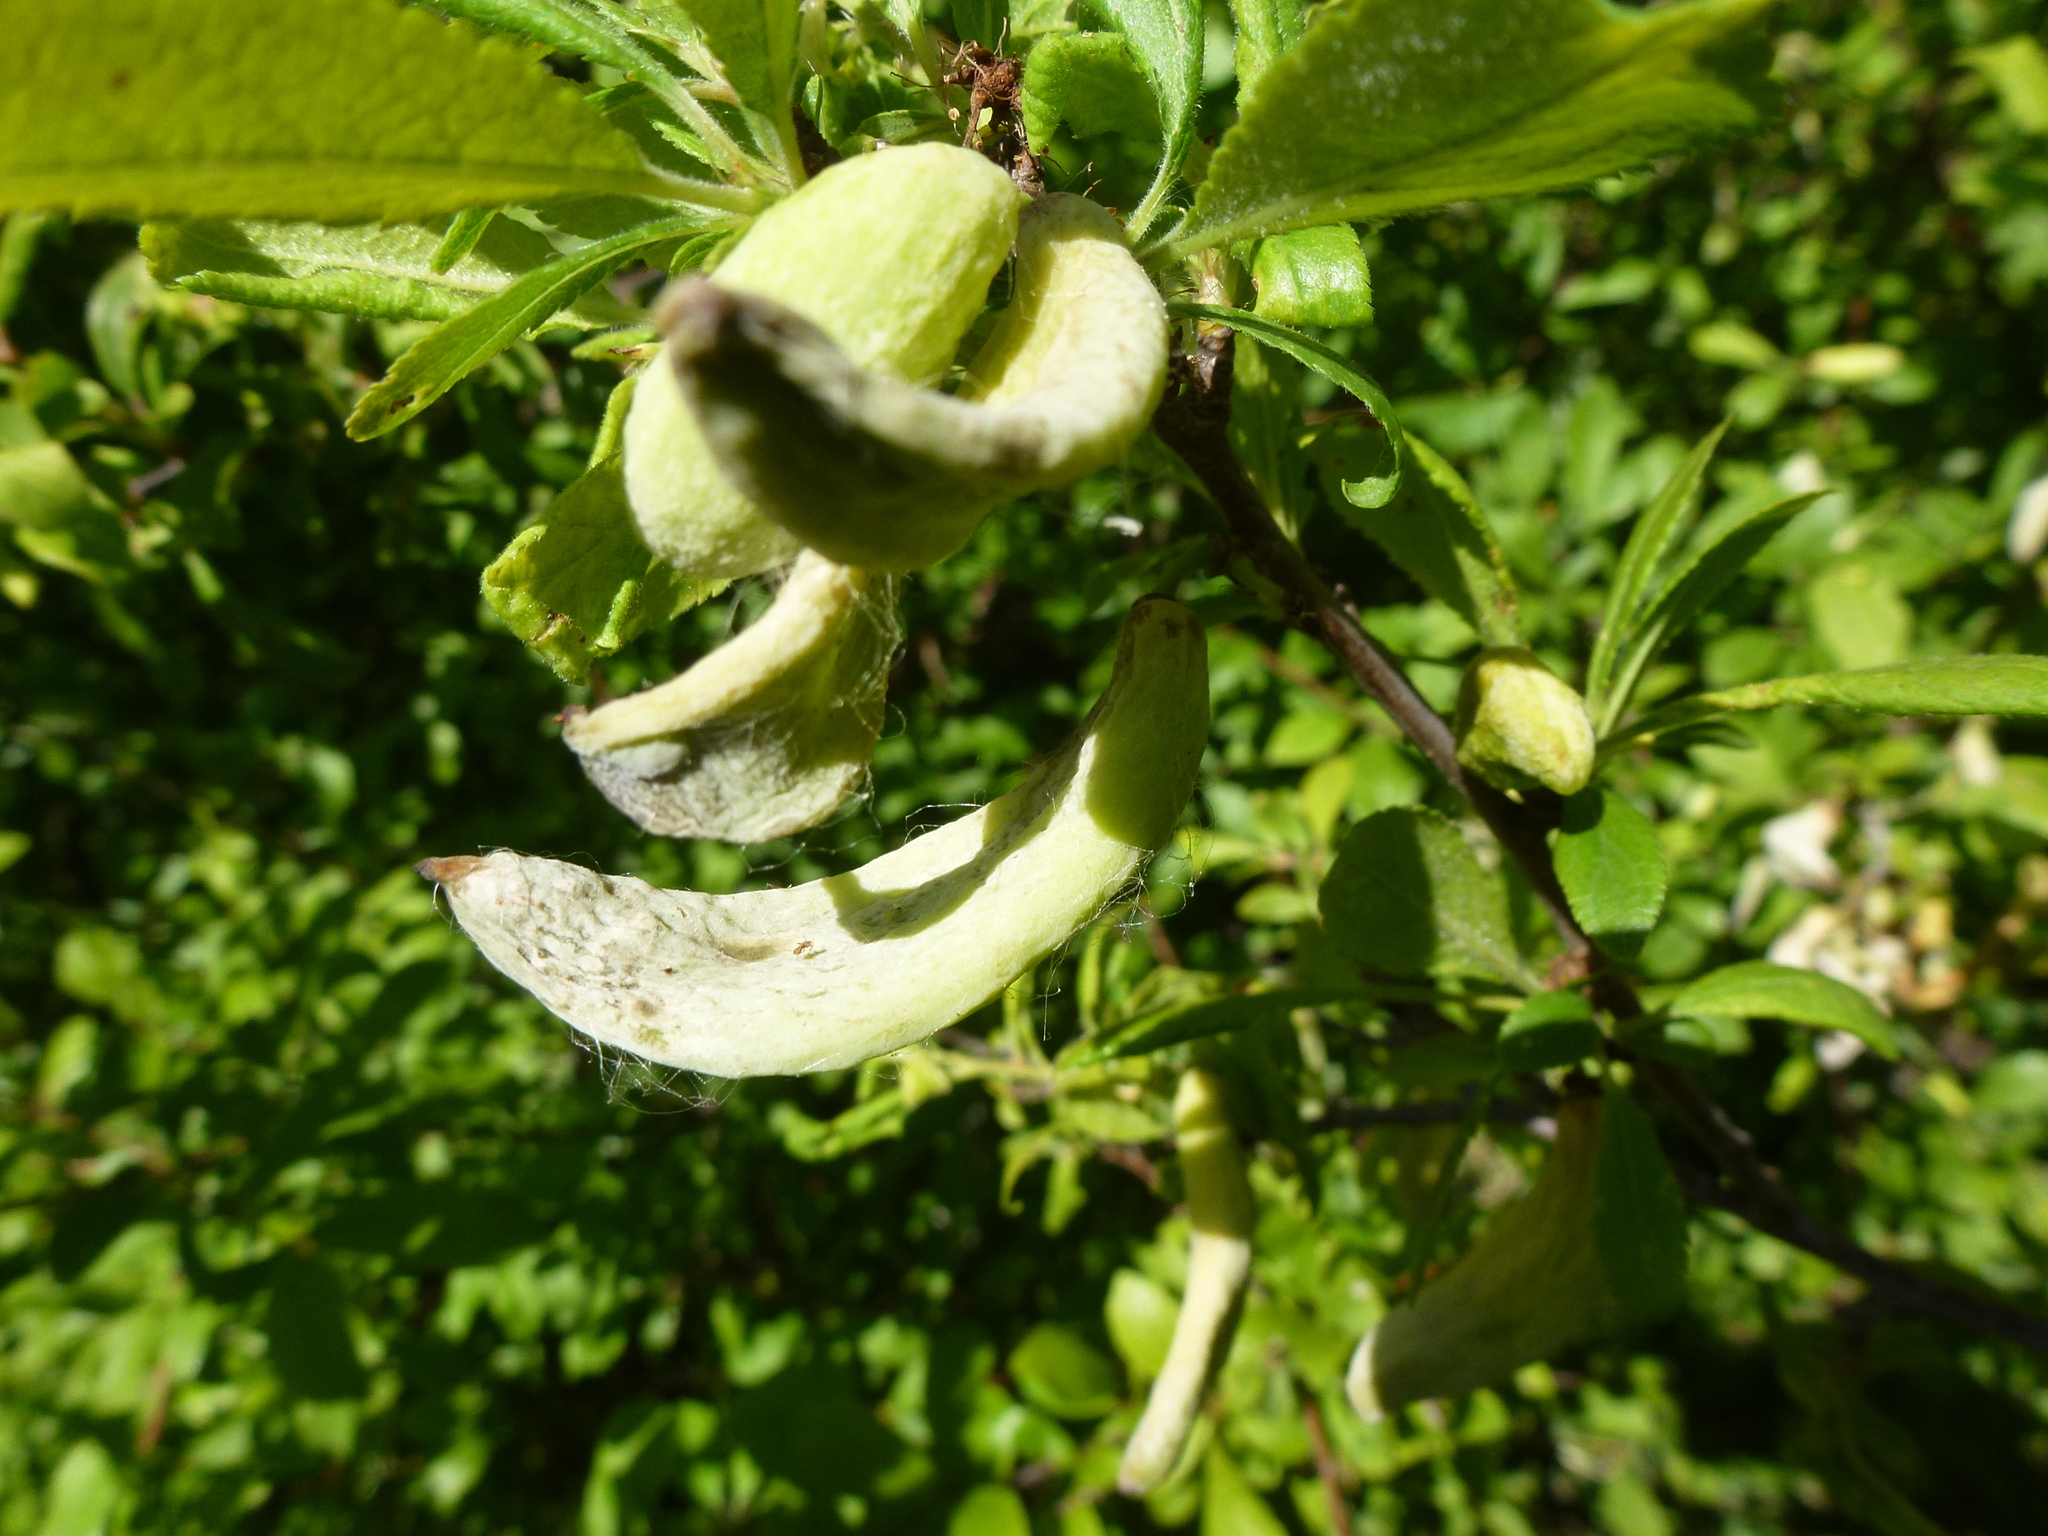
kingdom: Fungi
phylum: Ascomycota
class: Taphrinomycetes
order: Taphrinales
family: Taphrinaceae
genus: Taphrina
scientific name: Taphrina pruni
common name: Pocket plum
